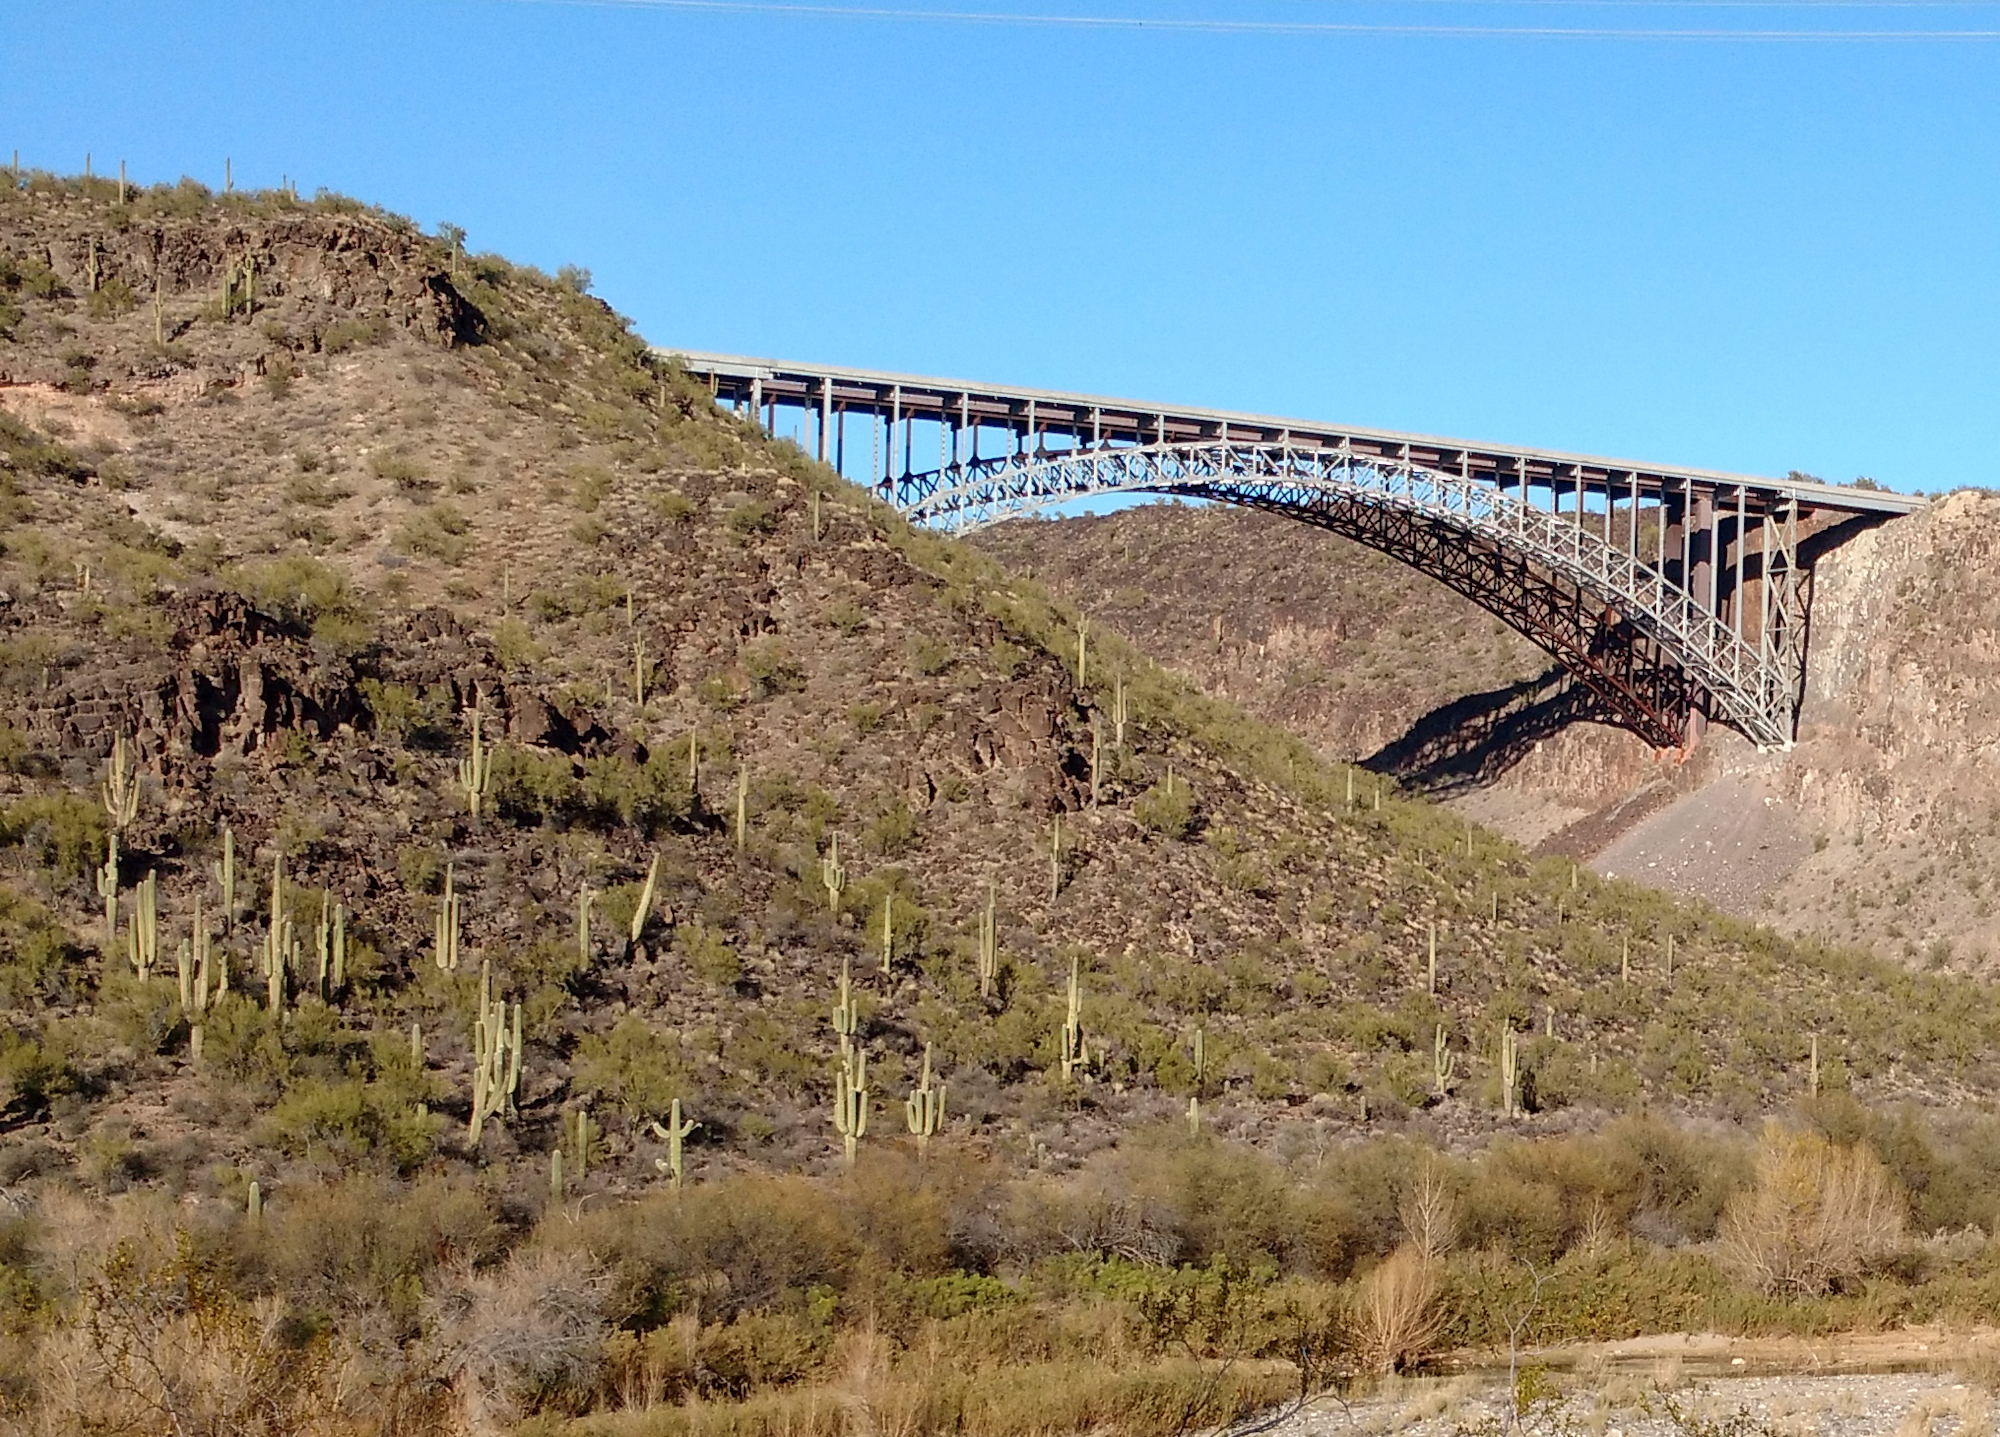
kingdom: Plantae
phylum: Tracheophyta
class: Magnoliopsida
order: Caryophyllales
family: Cactaceae
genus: Carnegiea
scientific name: Carnegiea gigantea
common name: Saguaro
